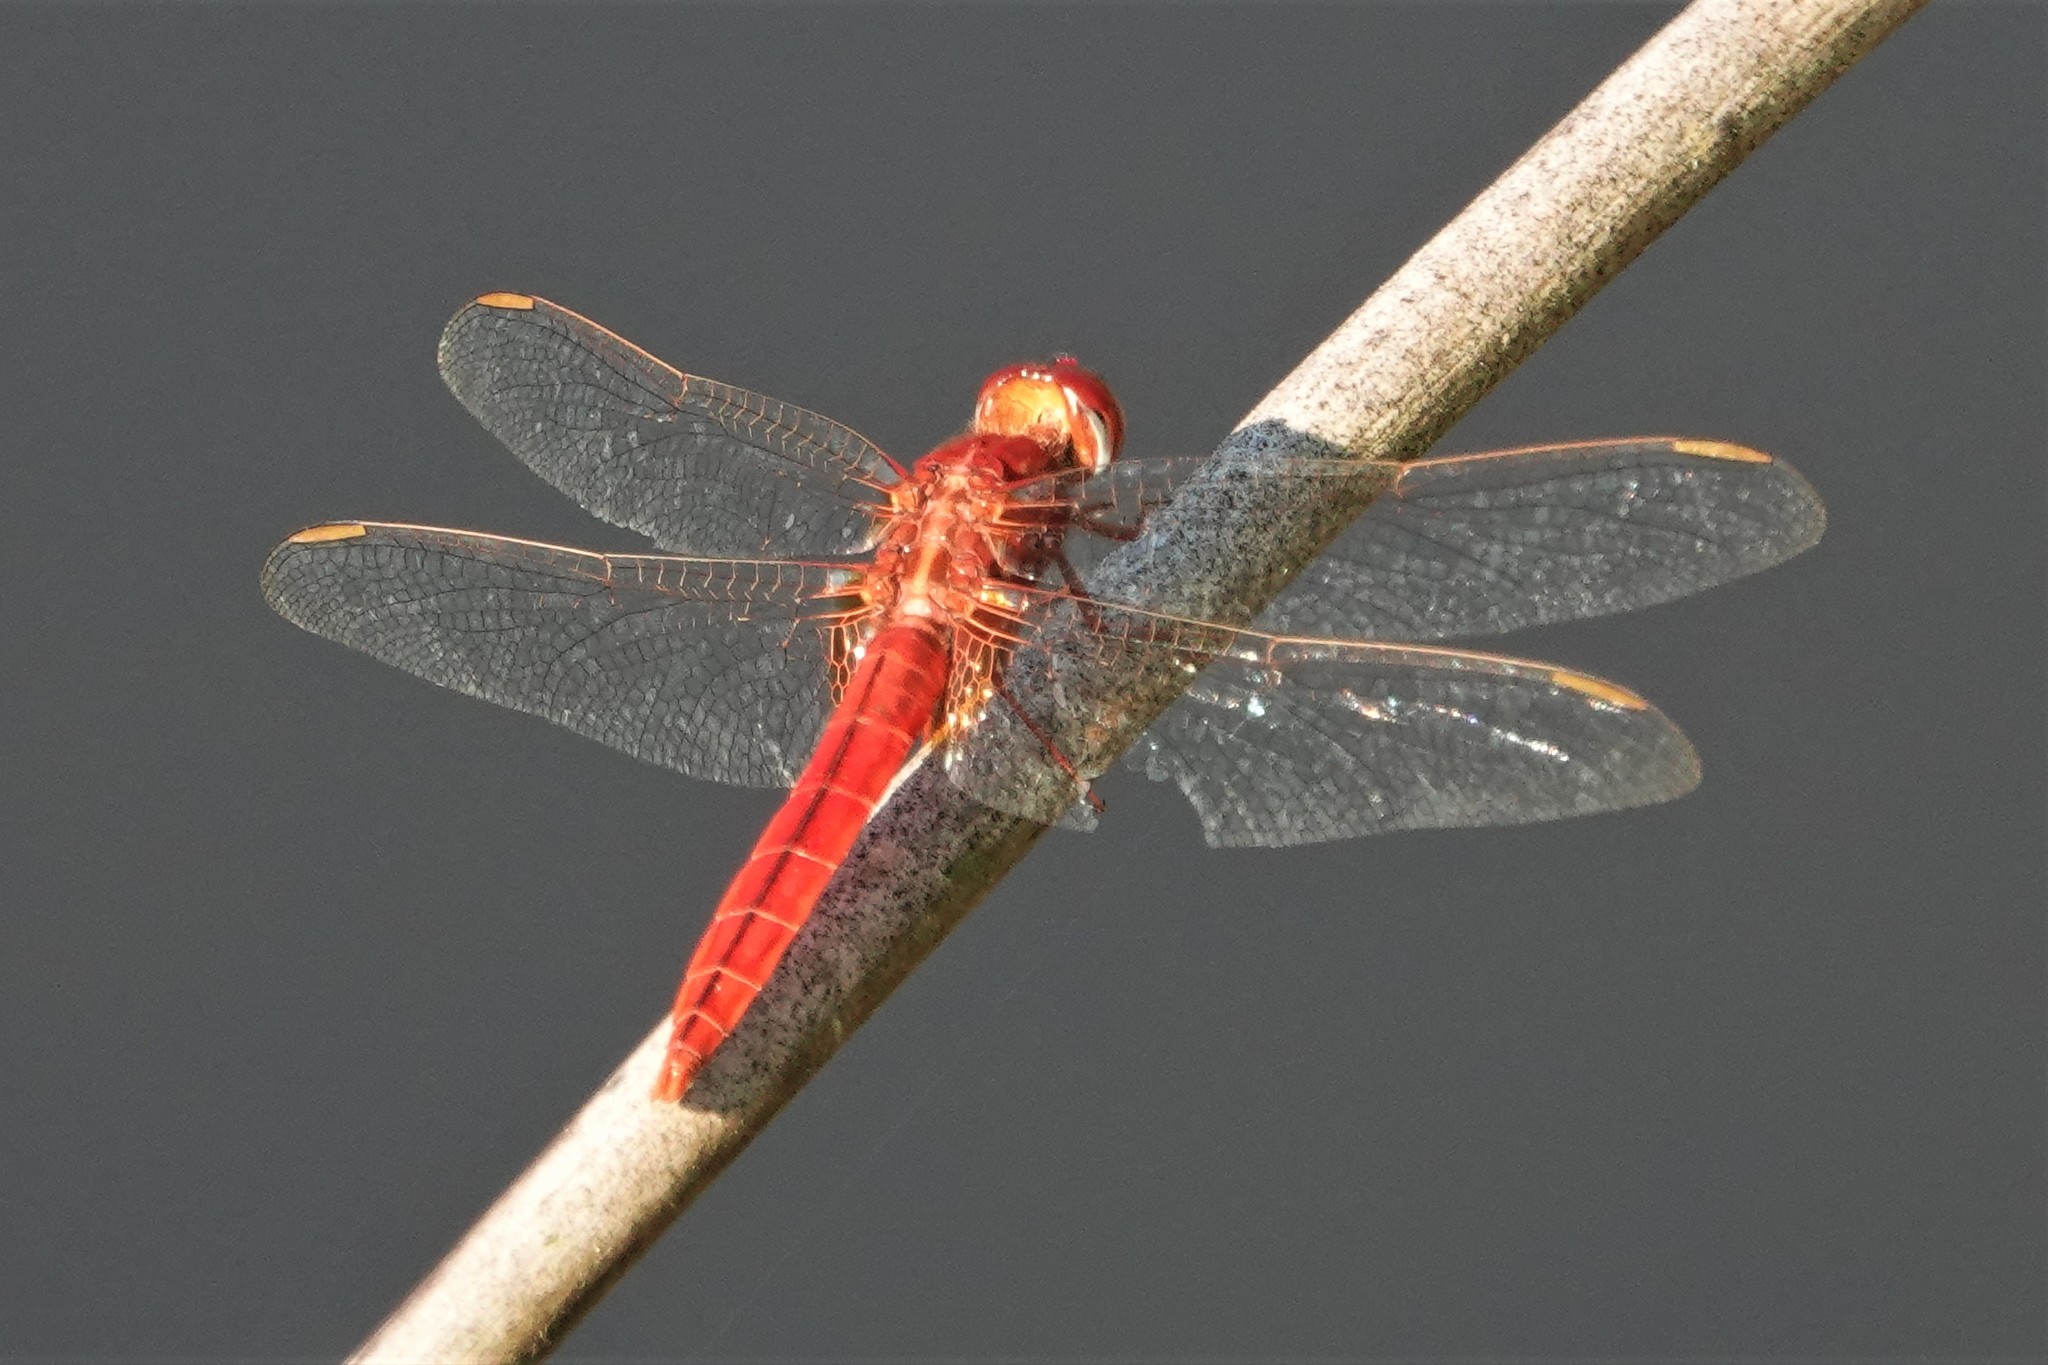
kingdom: Animalia
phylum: Arthropoda
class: Insecta
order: Odonata
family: Libellulidae
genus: Crocothemis
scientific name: Crocothemis servilia
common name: Scarlet skimmer
